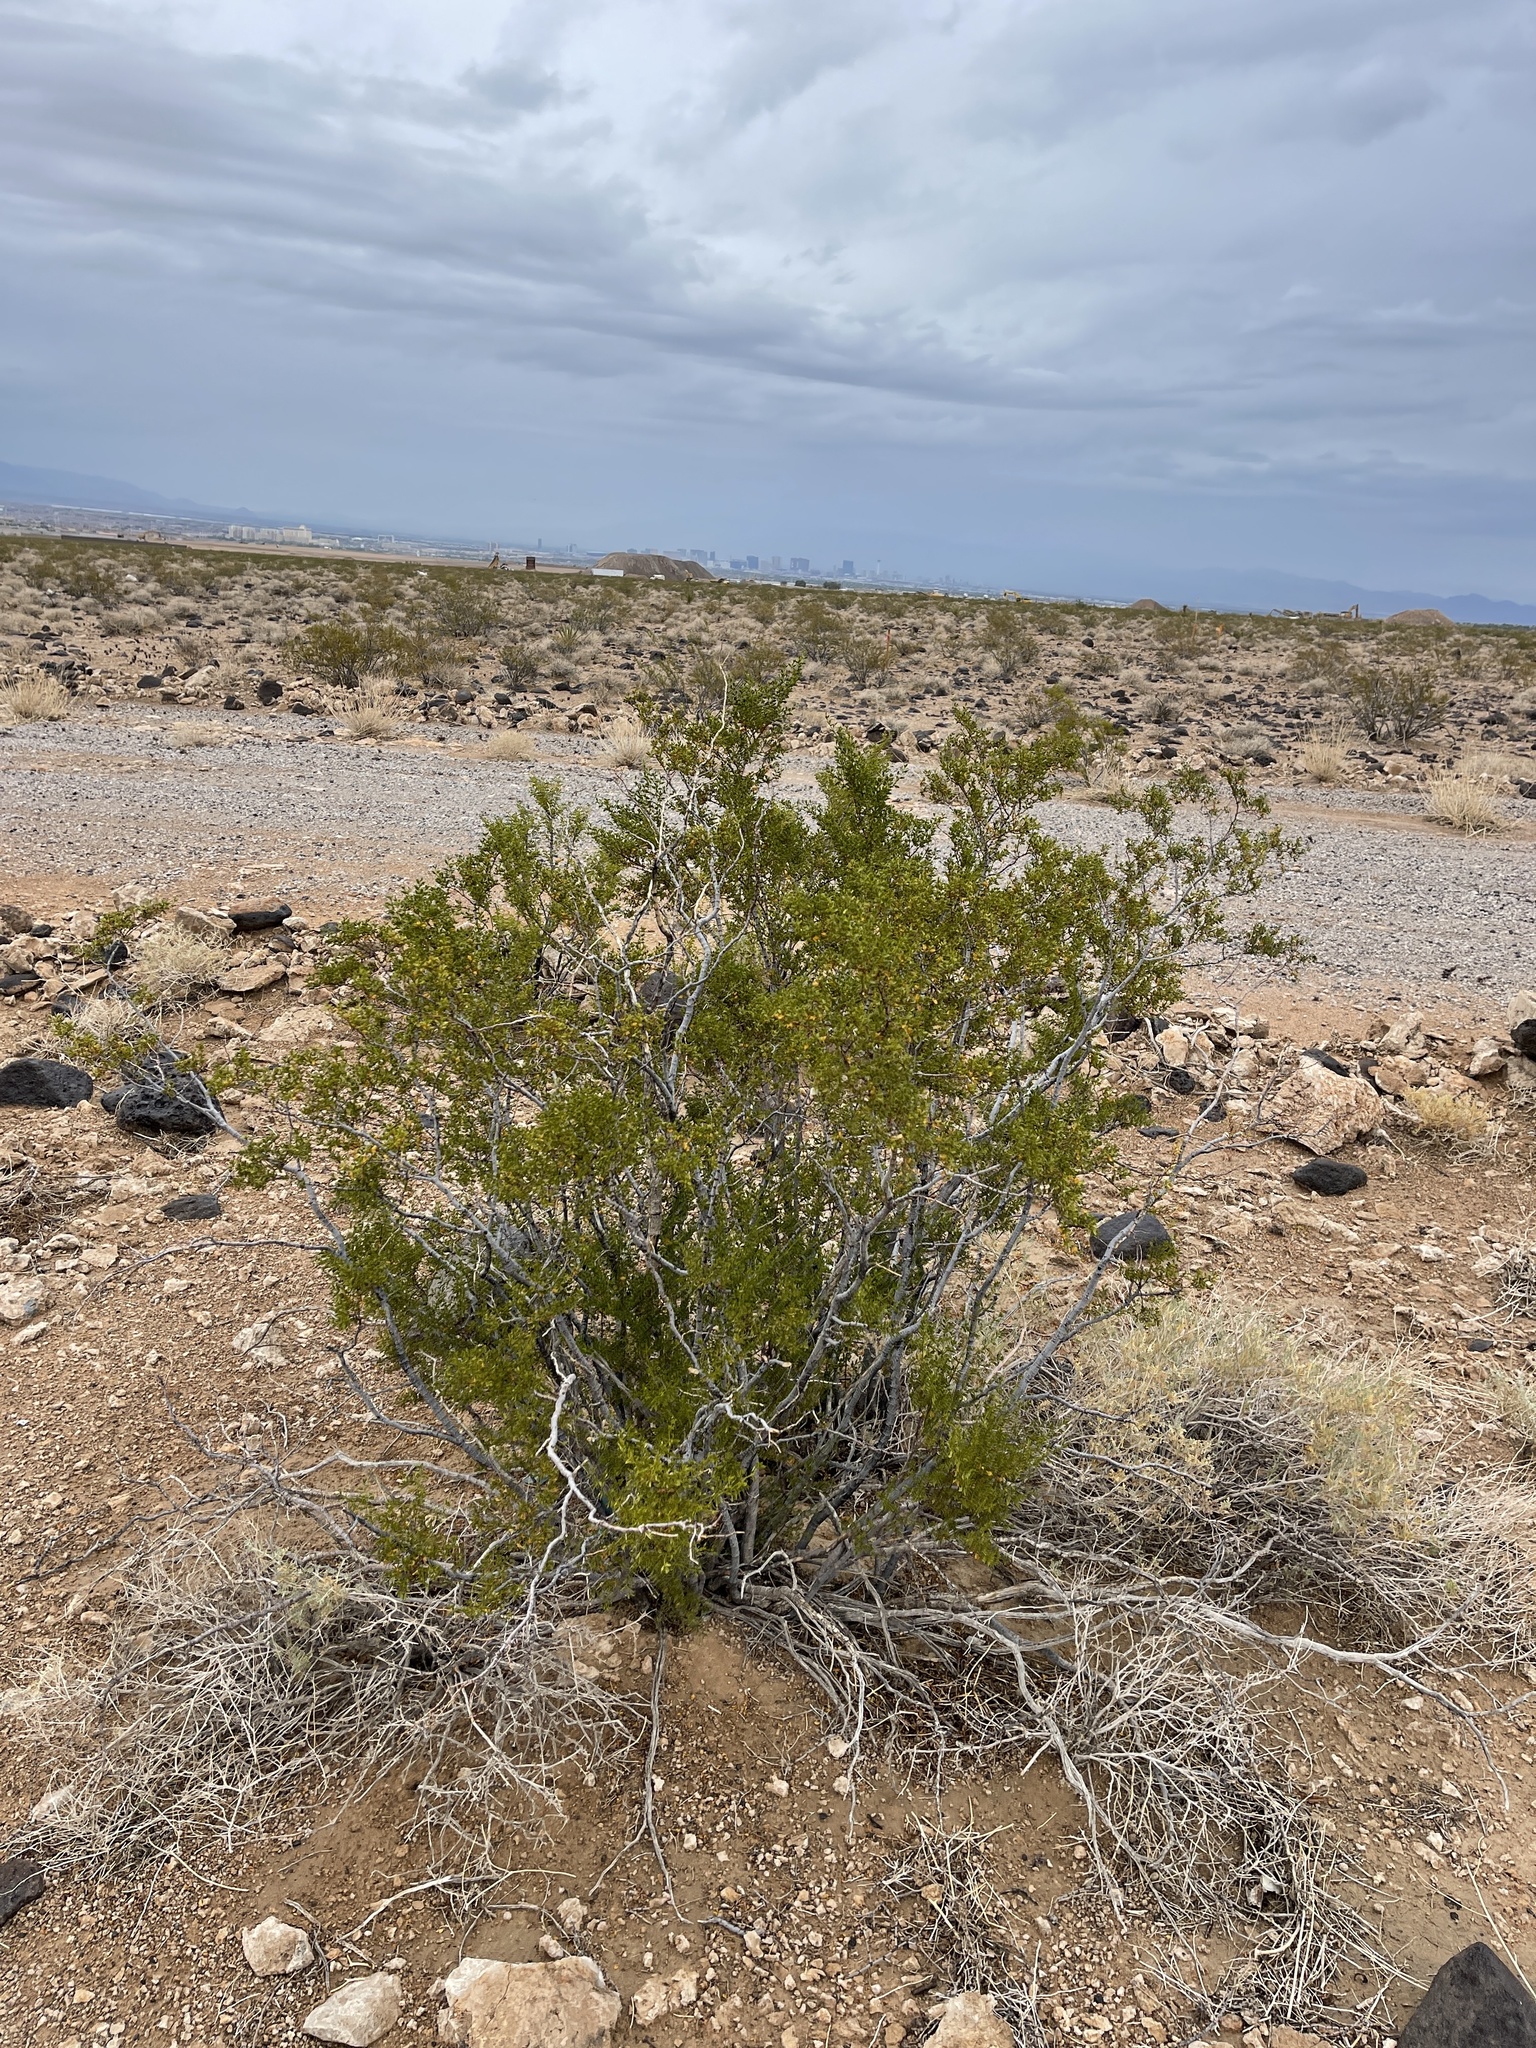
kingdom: Plantae
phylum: Tracheophyta
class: Magnoliopsida
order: Zygophyllales
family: Zygophyllaceae
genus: Larrea
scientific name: Larrea tridentata
